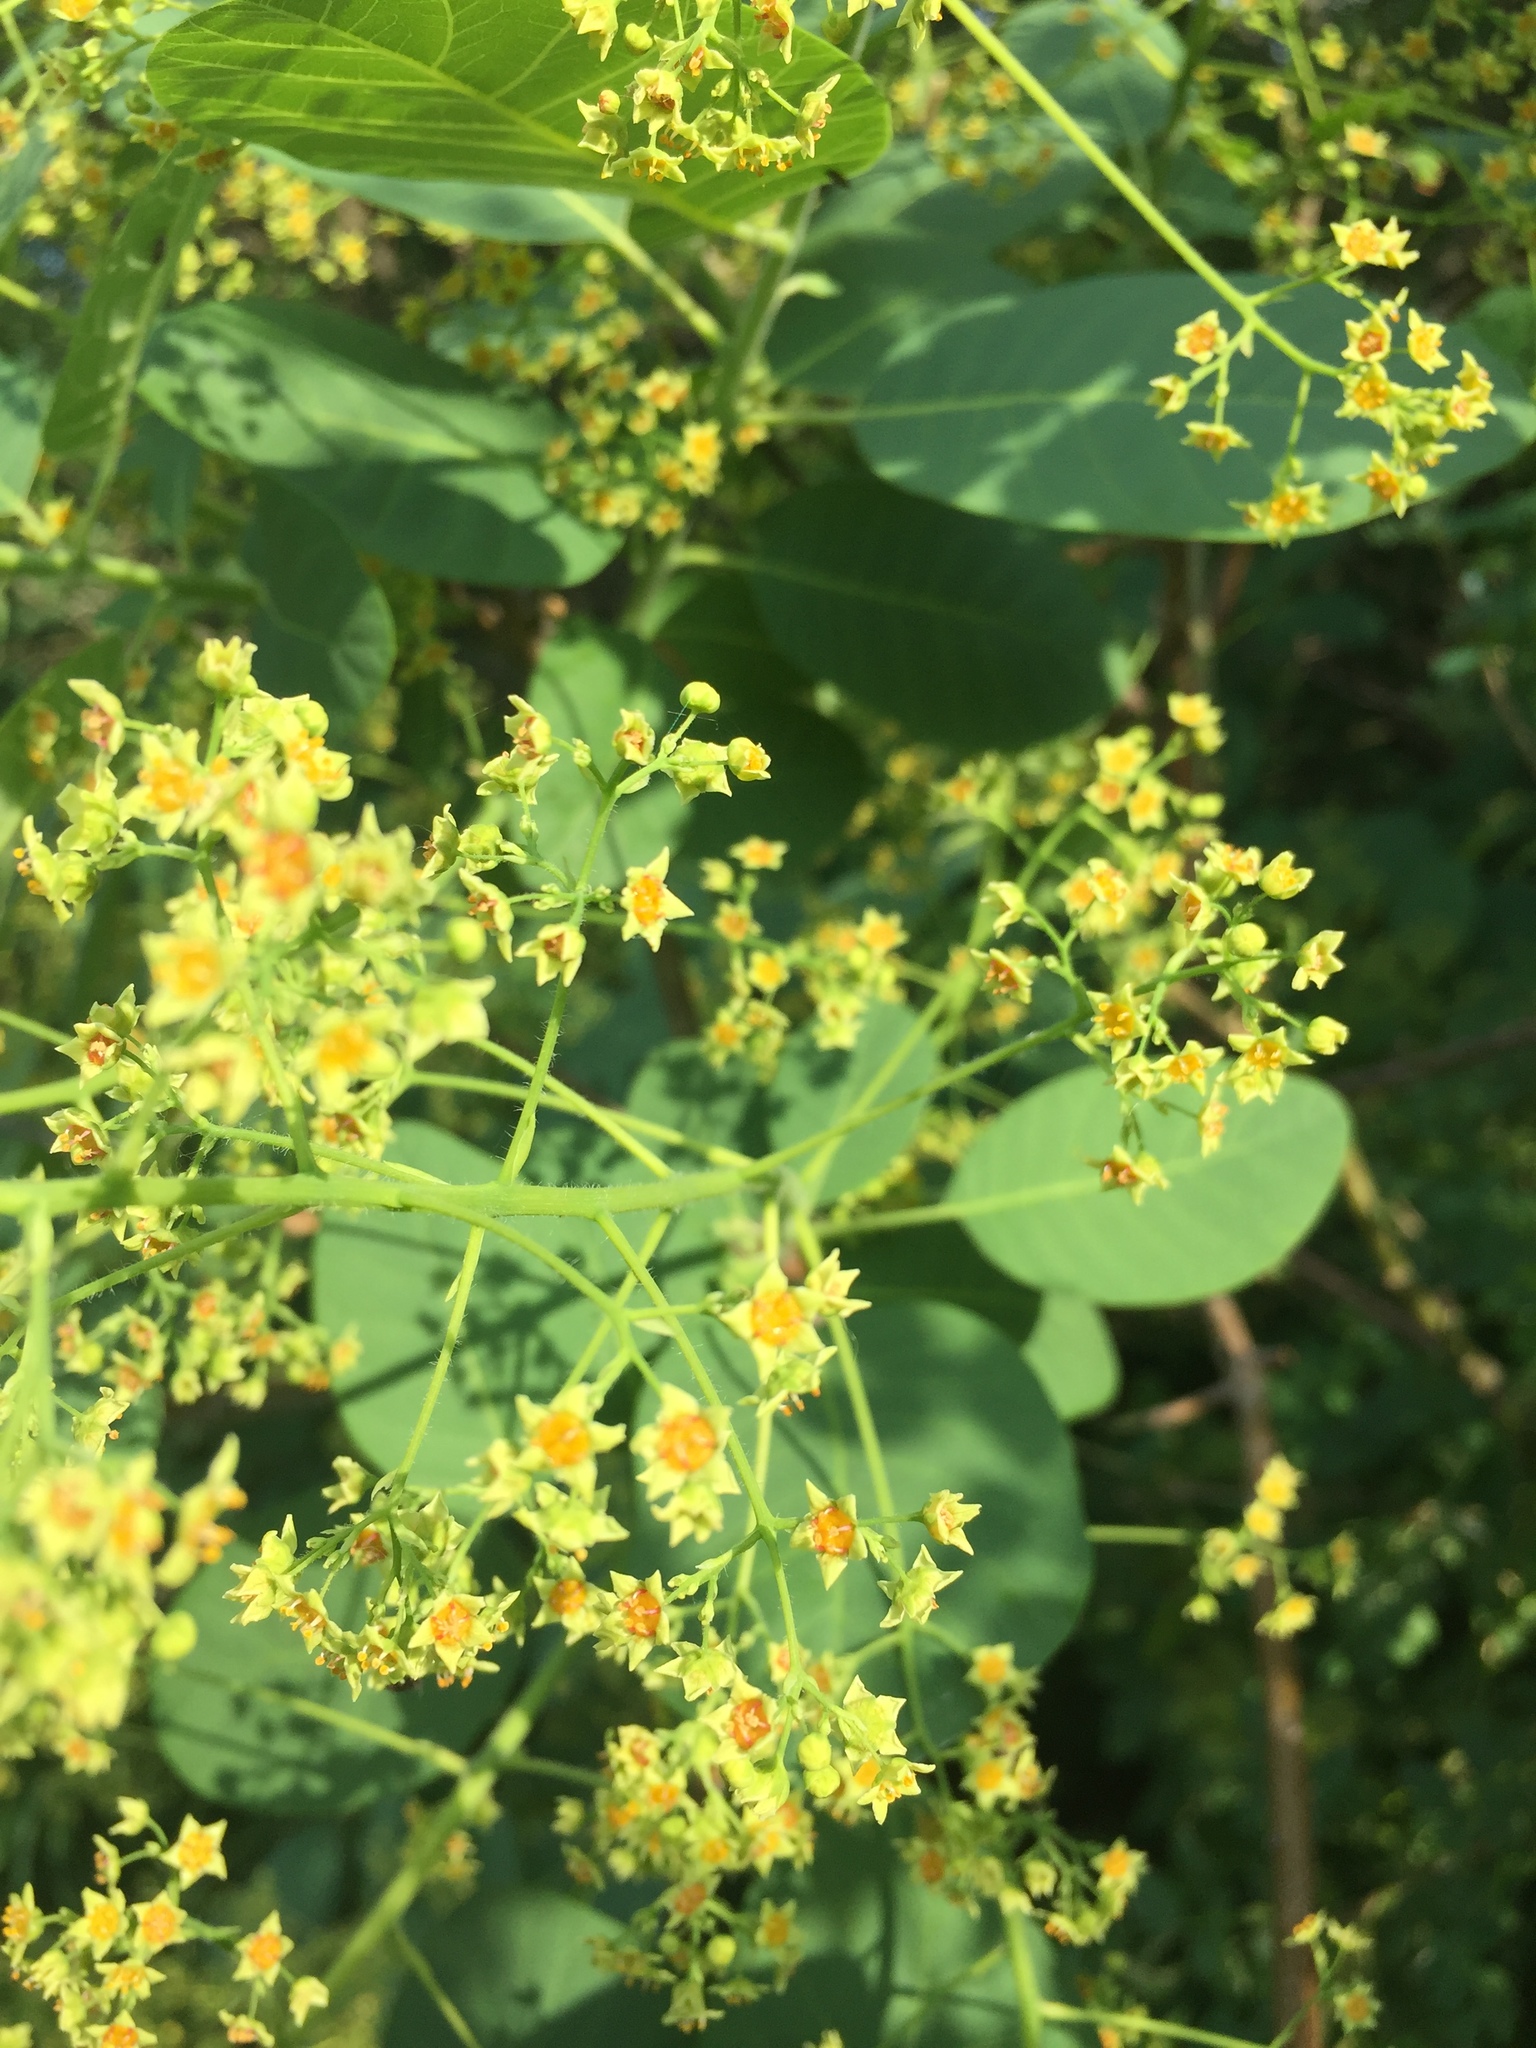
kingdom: Plantae
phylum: Tracheophyta
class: Magnoliopsida
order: Sapindales
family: Anacardiaceae
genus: Cotinus
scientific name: Cotinus coggygria
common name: Smoke-tree
